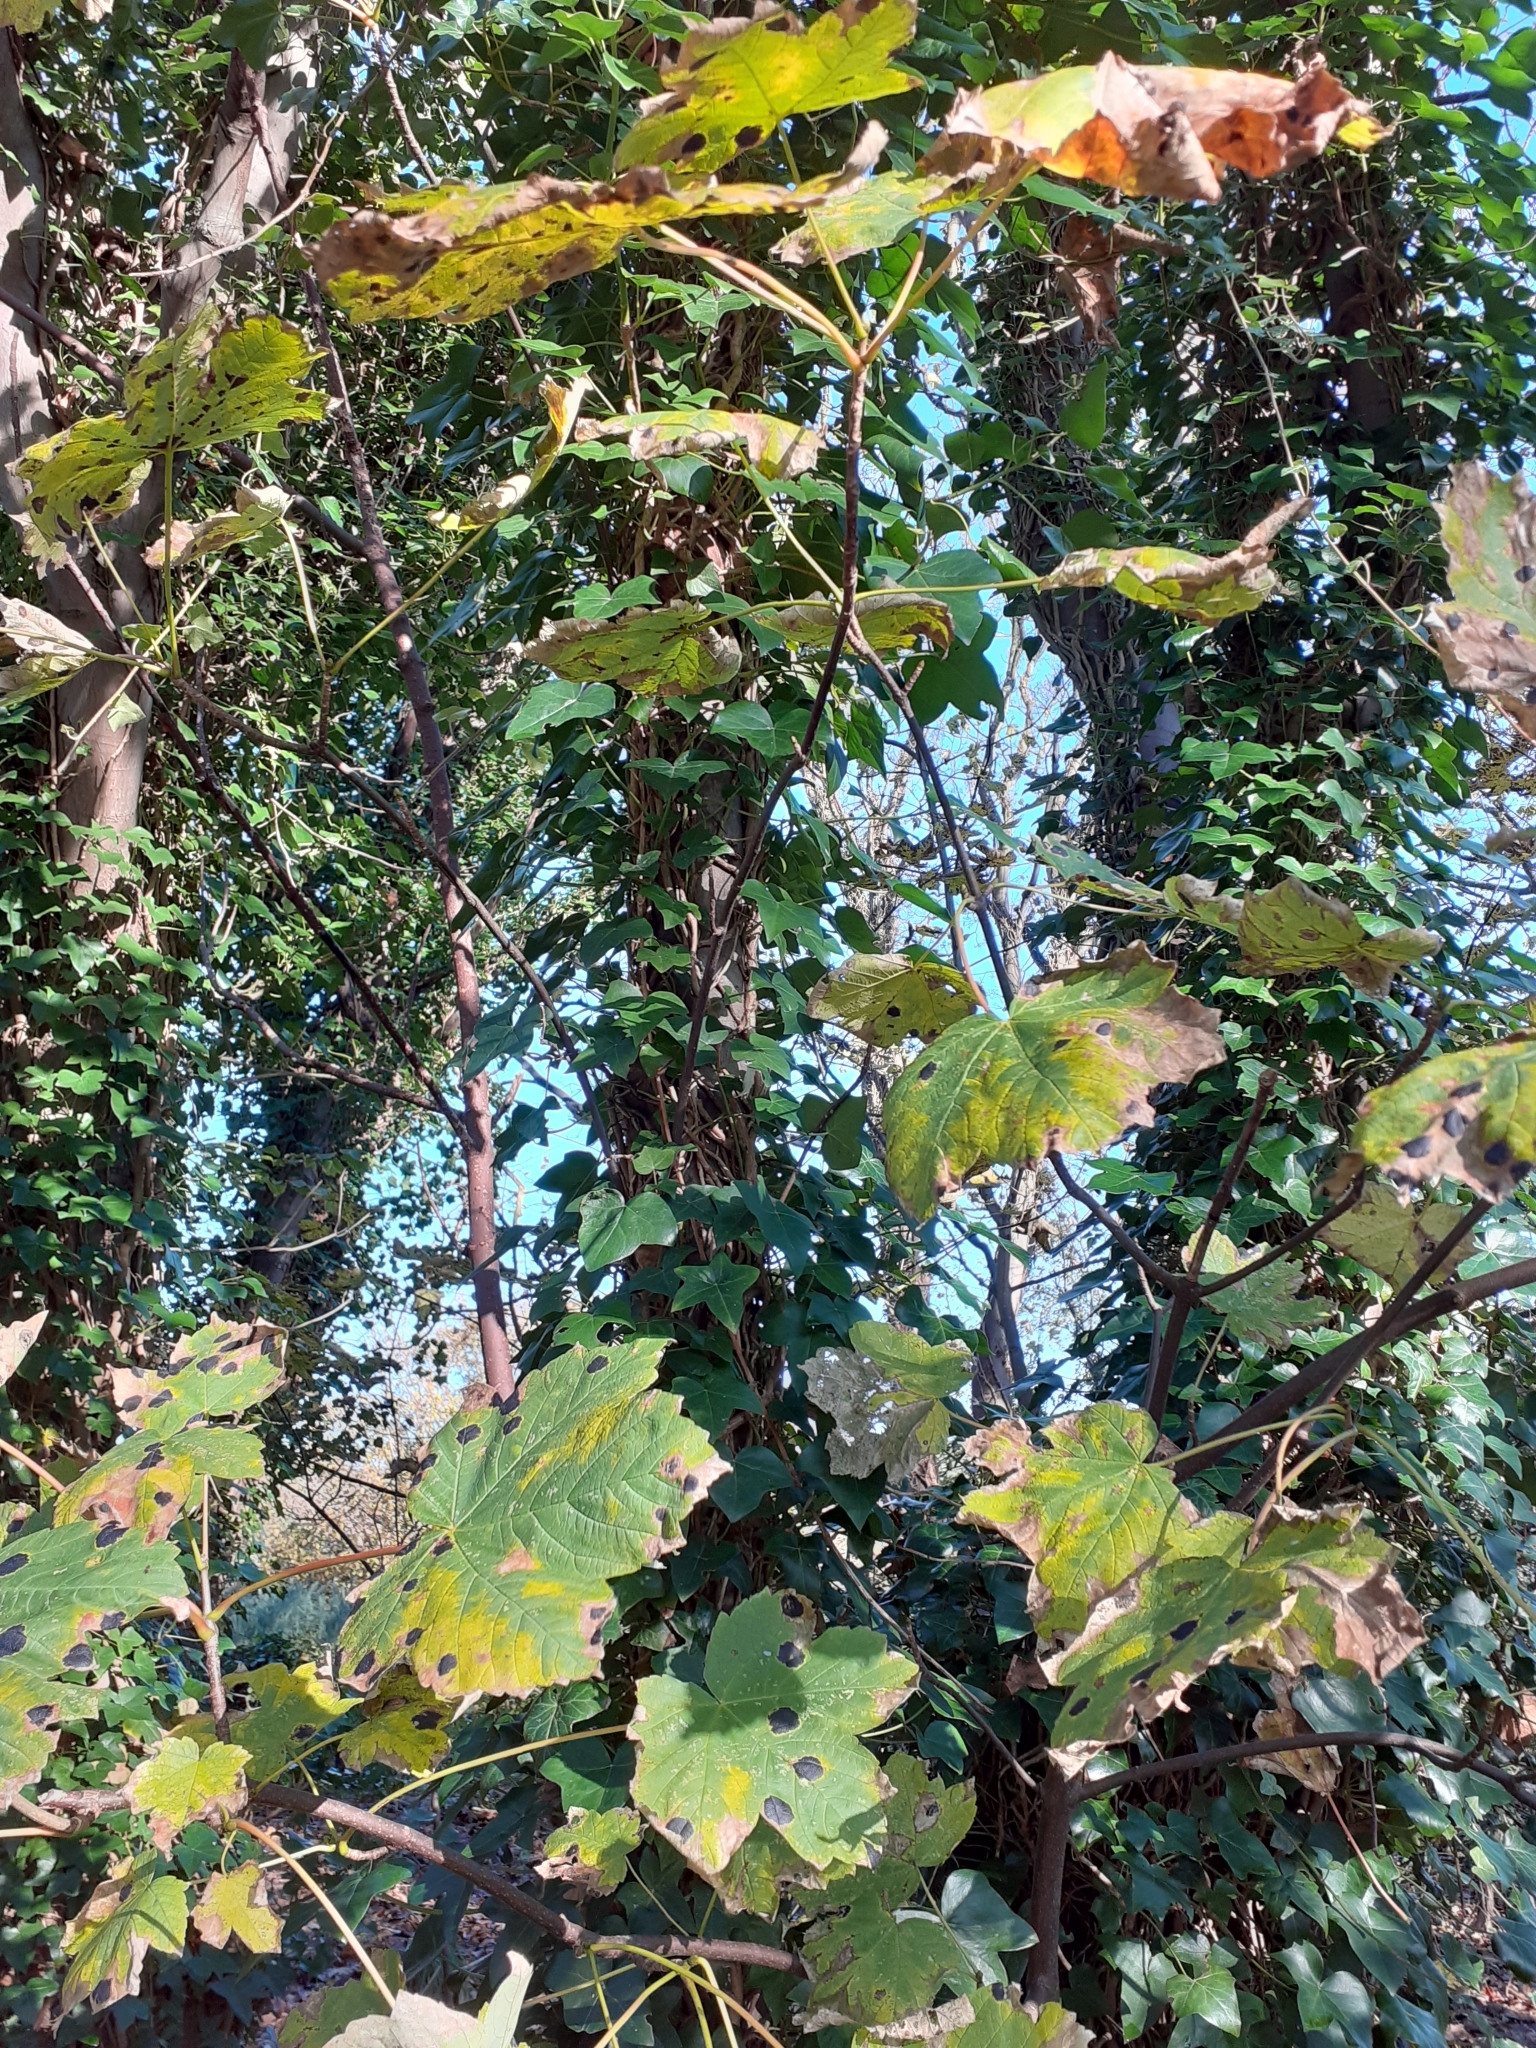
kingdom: Plantae
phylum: Tracheophyta
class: Magnoliopsida
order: Sapindales
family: Sapindaceae
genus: Acer
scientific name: Acer pseudoplatanus
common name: Sycamore
